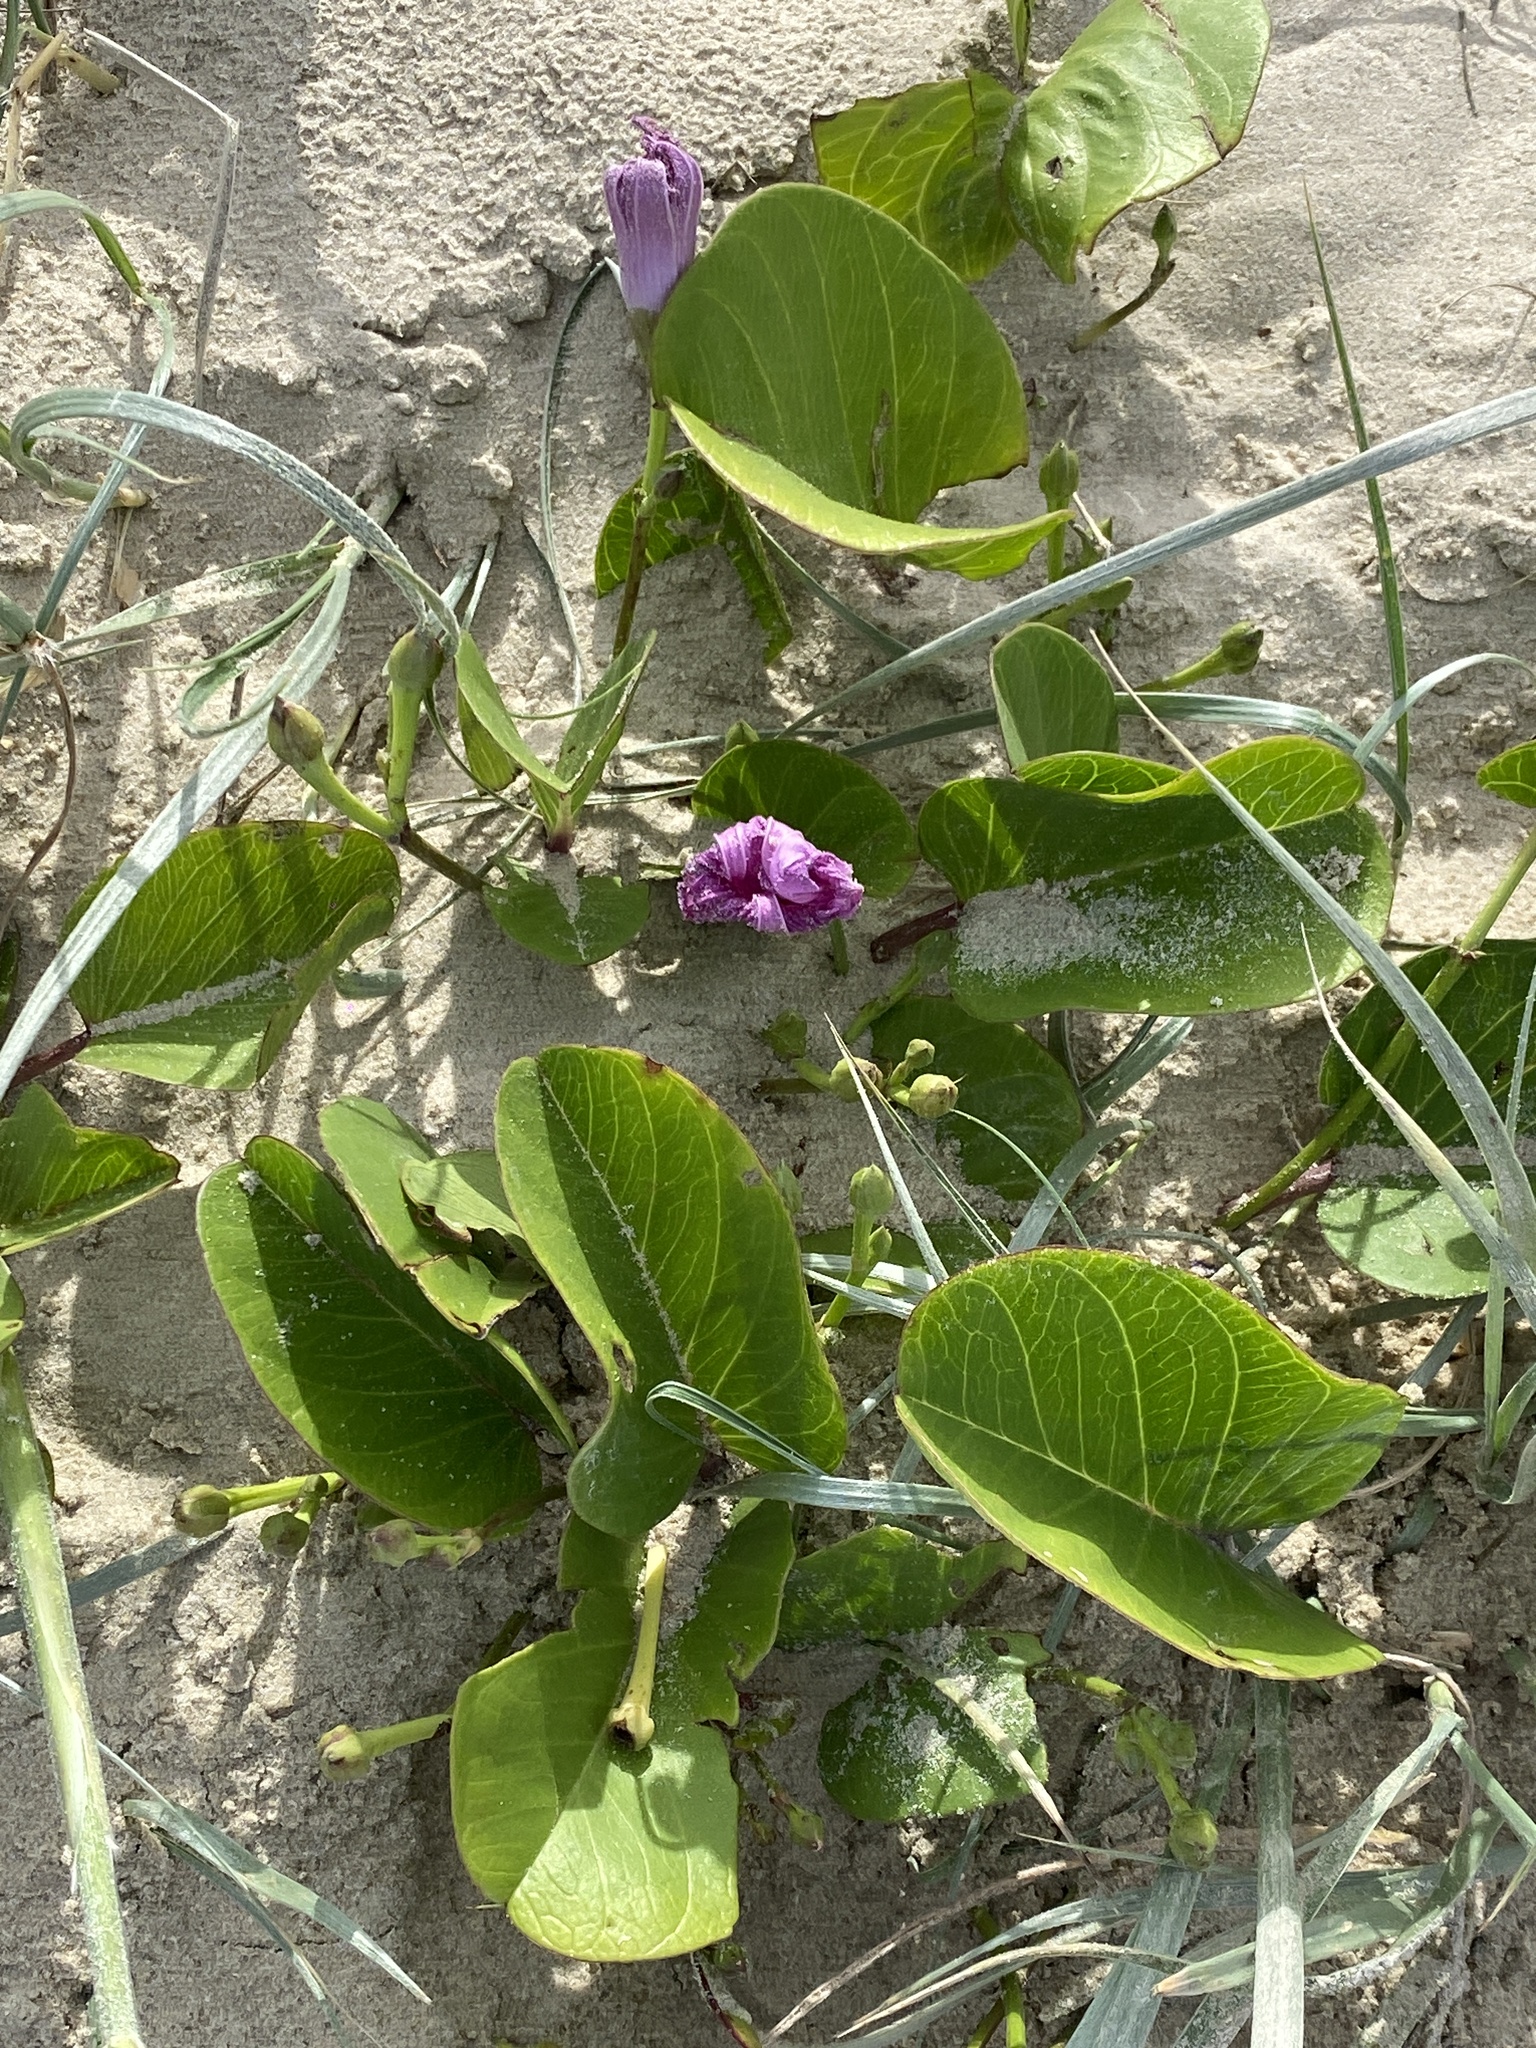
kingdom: Plantae
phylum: Tracheophyta
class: Magnoliopsida
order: Solanales
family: Convolvulaceae
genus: Ipomoea
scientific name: Ipomoea pes-caprae
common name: Beach morning glory
